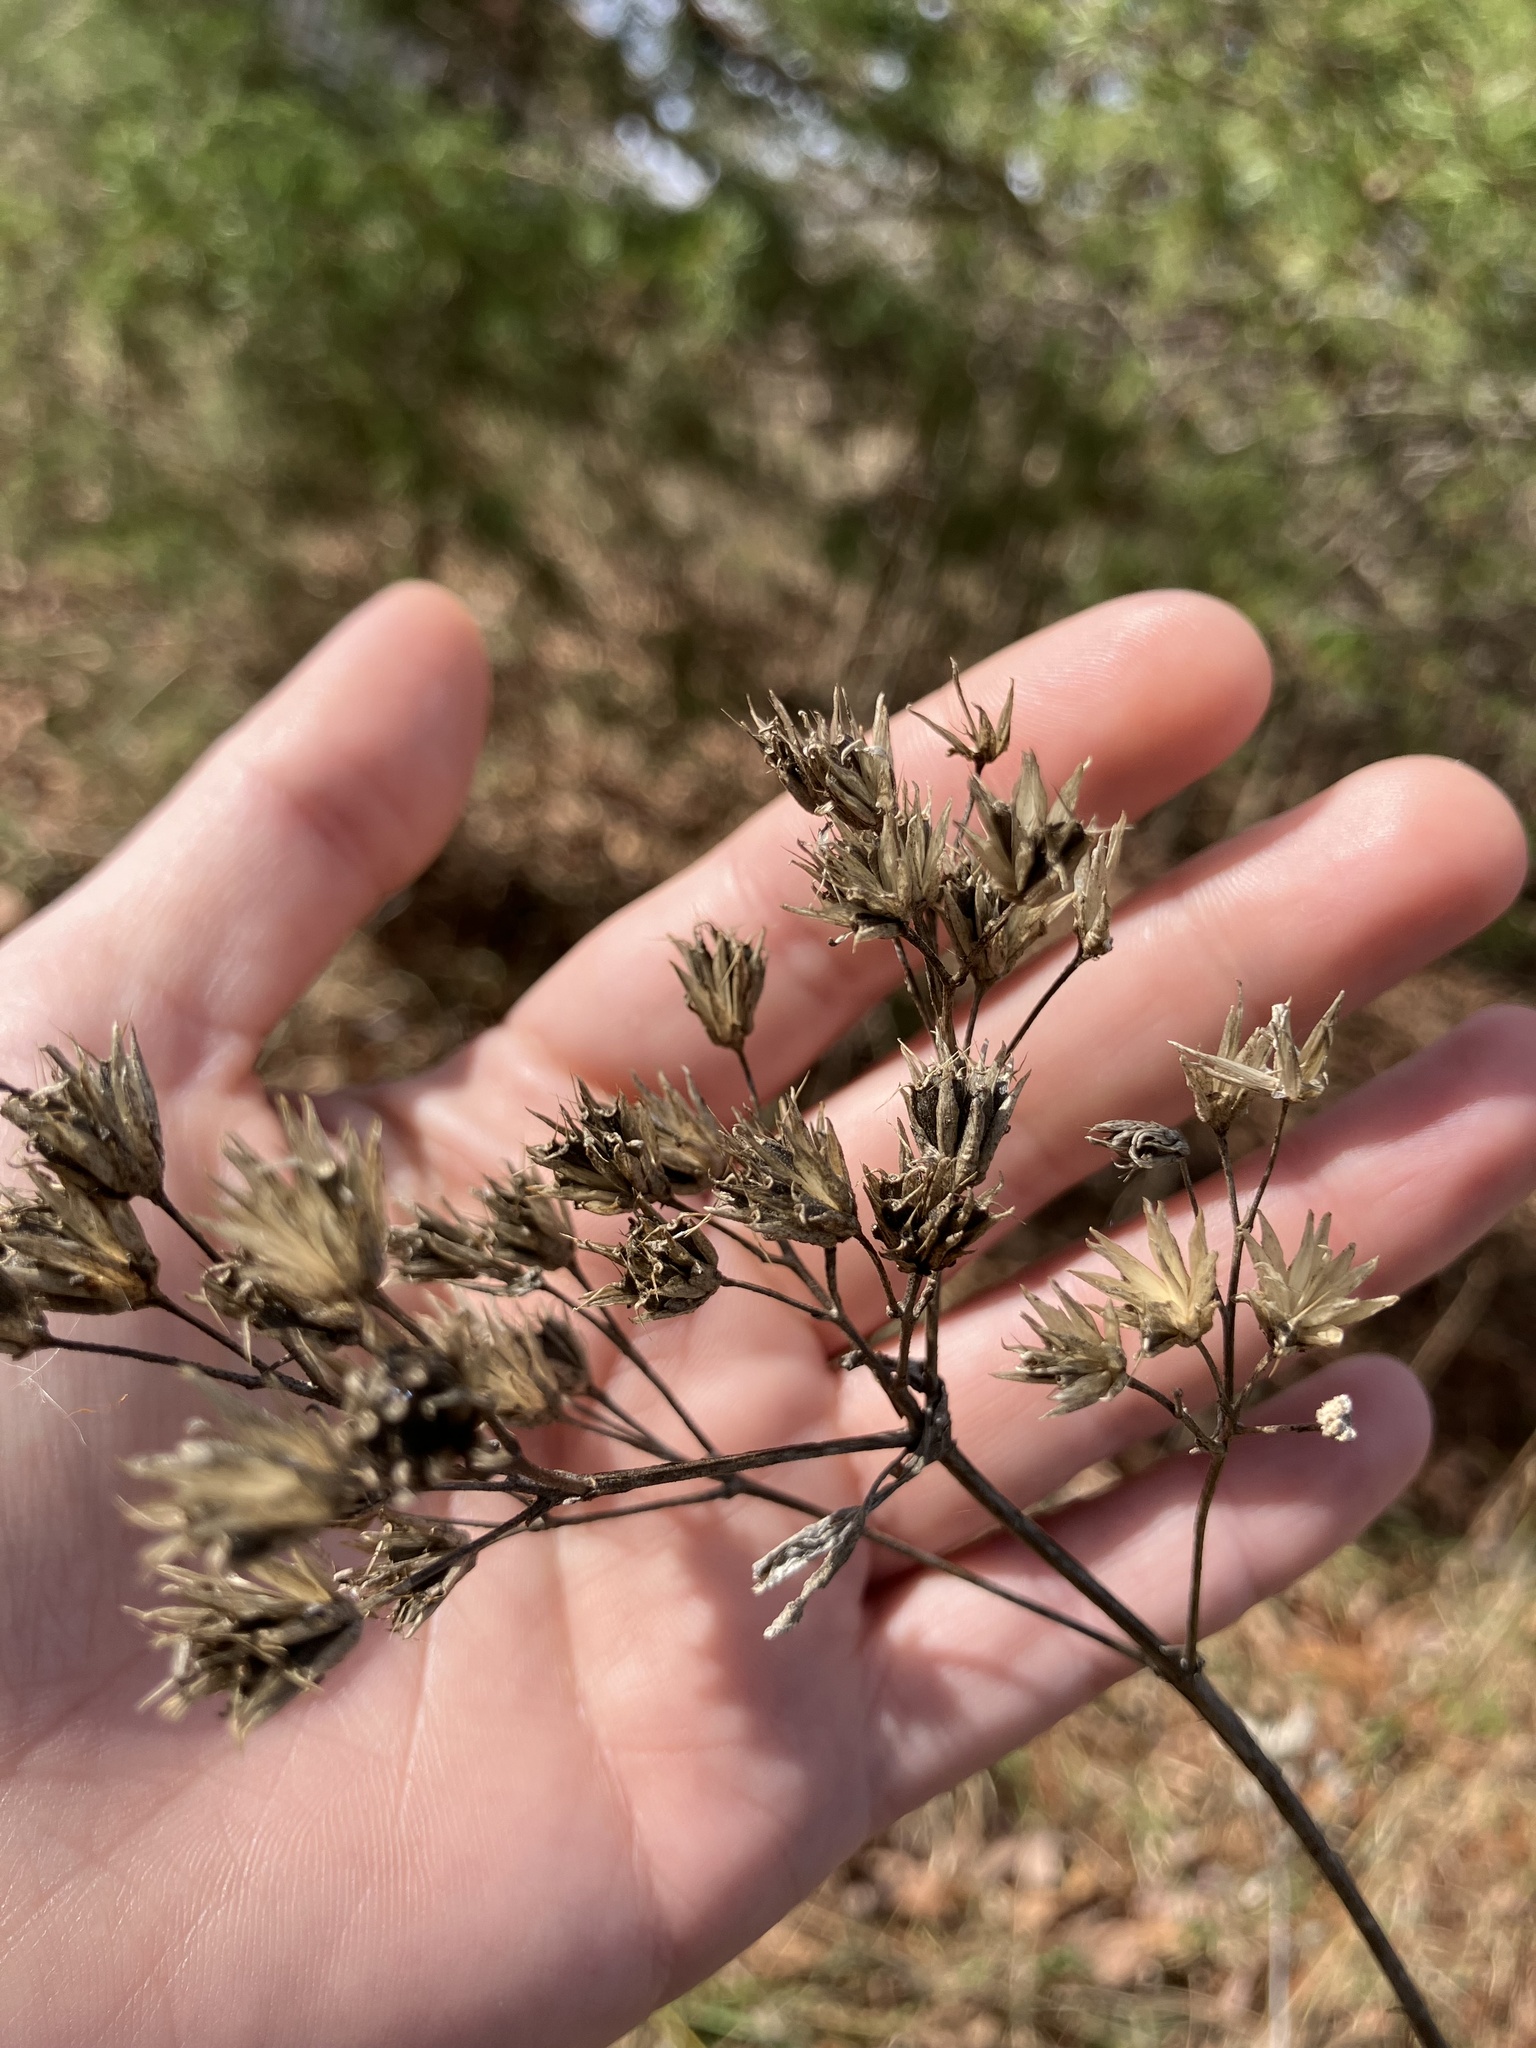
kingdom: Plantae
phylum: Tracheophyta
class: Magnoliopsida
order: Asterales
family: Asteraceae
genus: Verbesina
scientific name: Verbesina occidentalis
